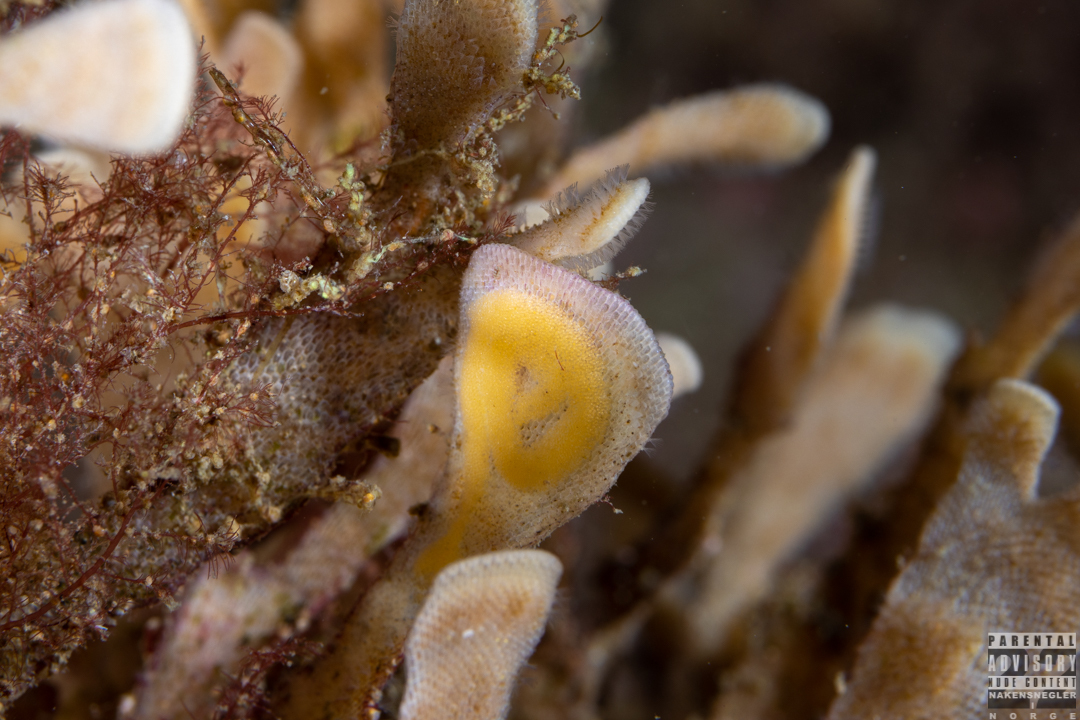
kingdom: Animalia
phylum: Mollusca
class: Gastropoda
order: Nudibranchia
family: Polyceridae
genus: Crimora
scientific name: Crimora papillata
